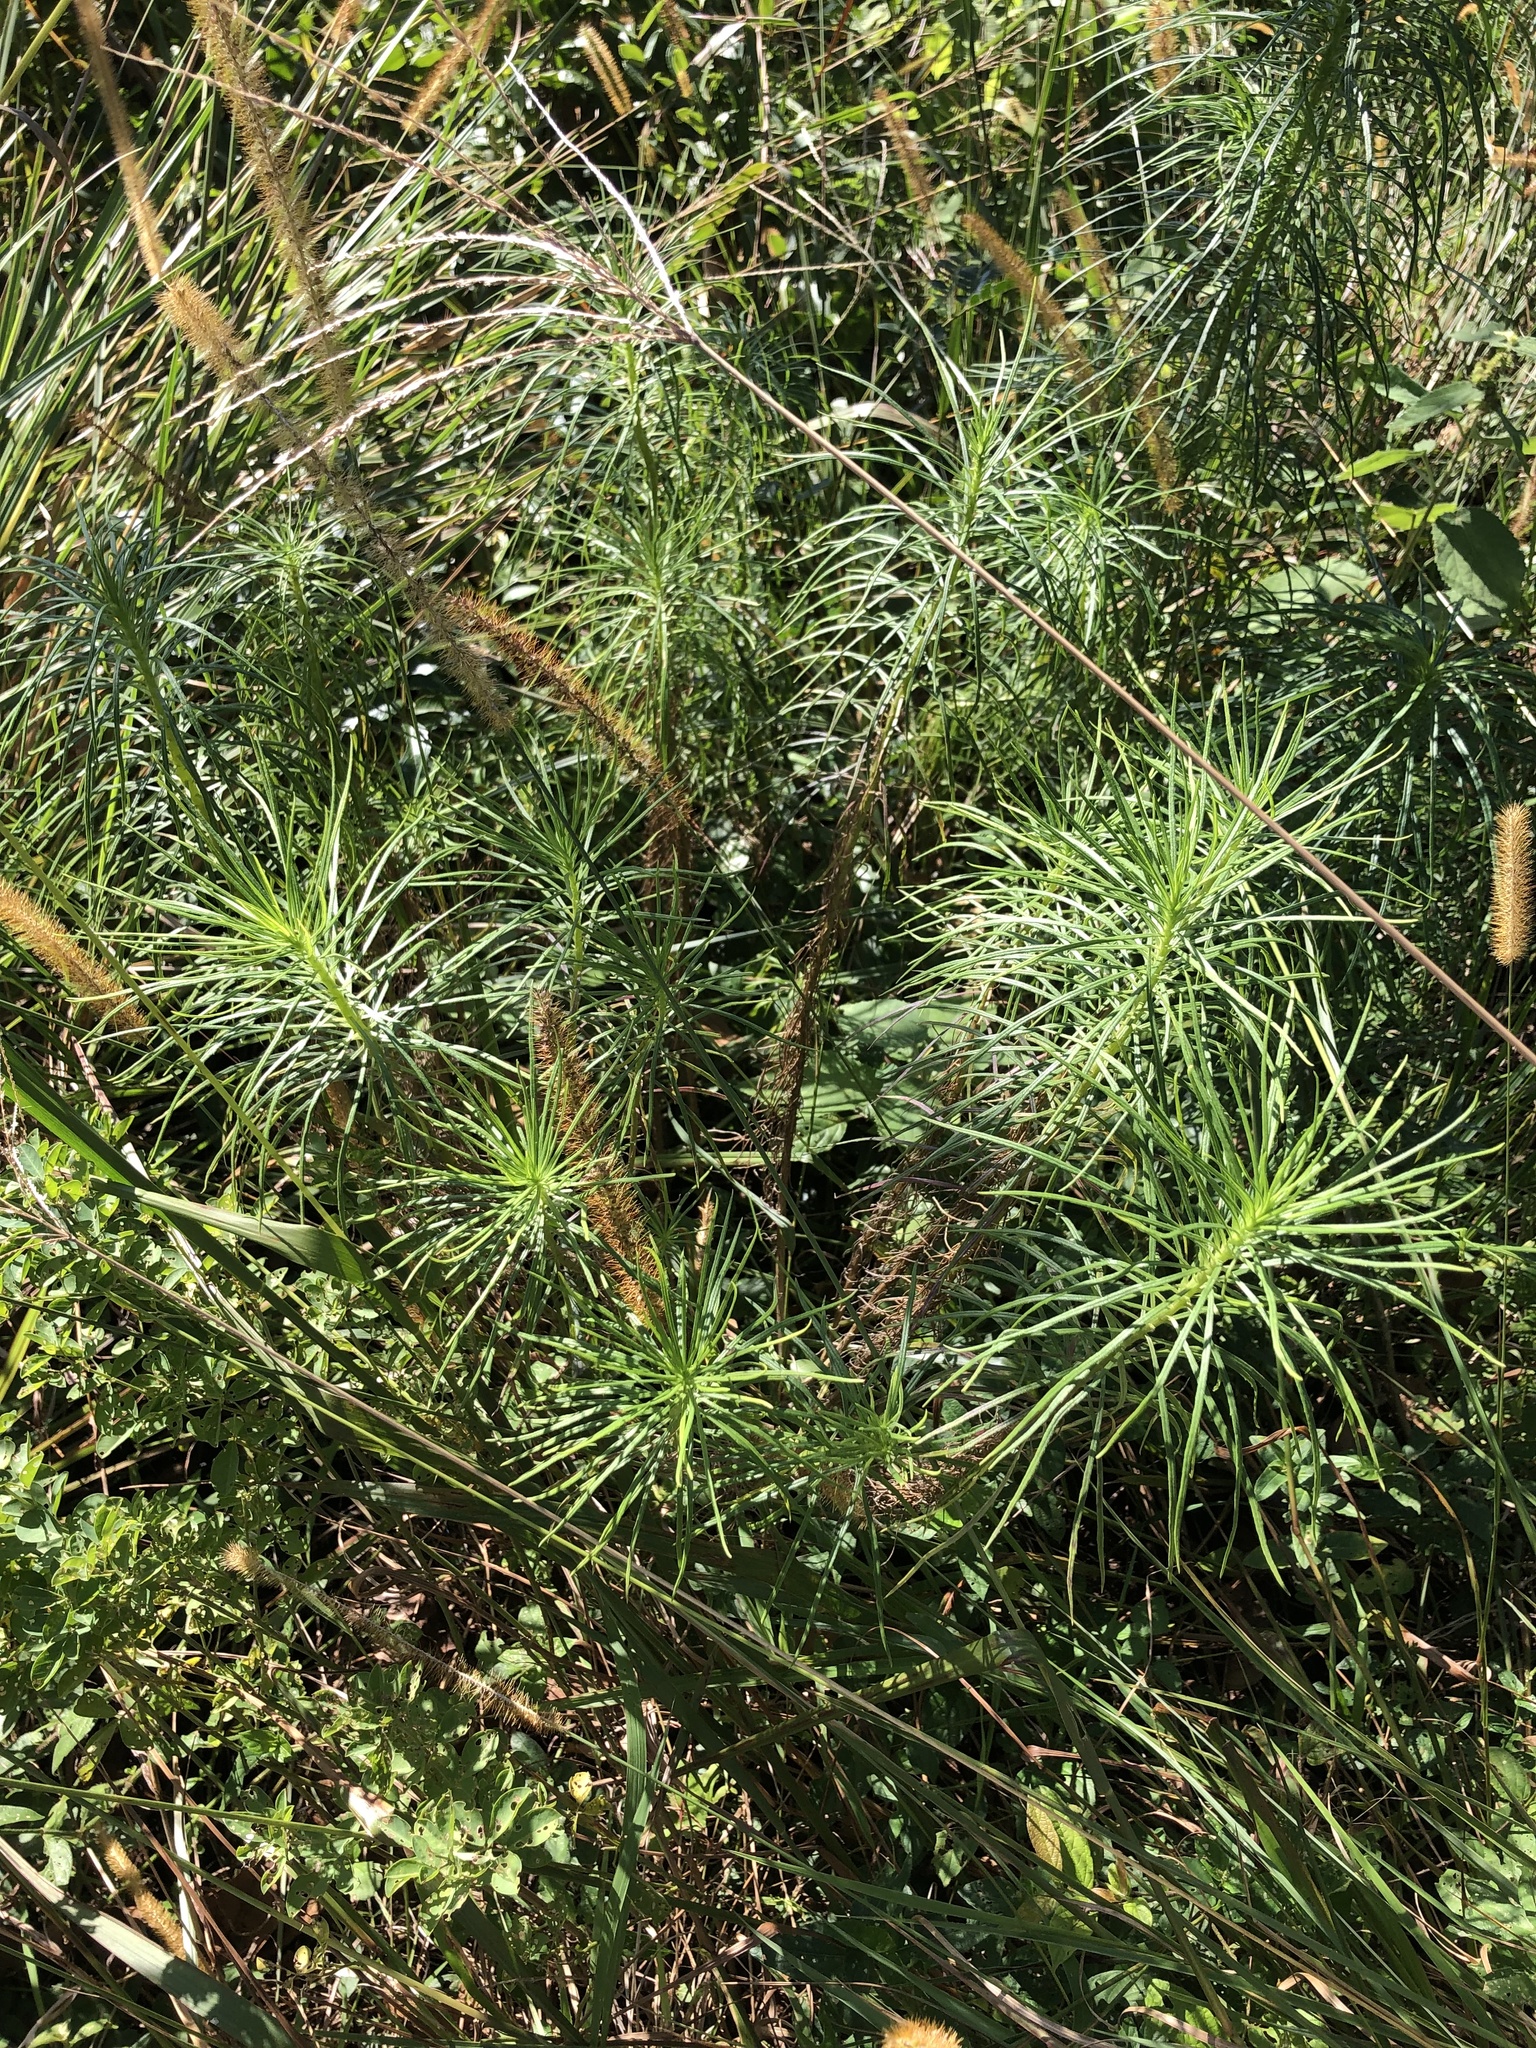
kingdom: Plantae
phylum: Tracheophyta
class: Magnoliopsida
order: Asterales
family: Asteraceae
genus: Senecio
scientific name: Senecio chrysocoma
